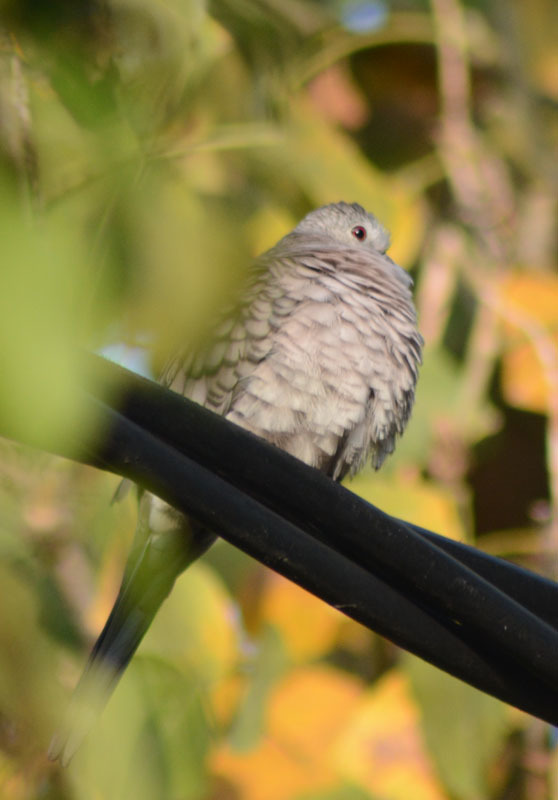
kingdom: Animalia
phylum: Chordata
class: Aves
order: Columbiformes
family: Columbidae
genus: Columbina
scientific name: Columbina inca
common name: Inca dove
